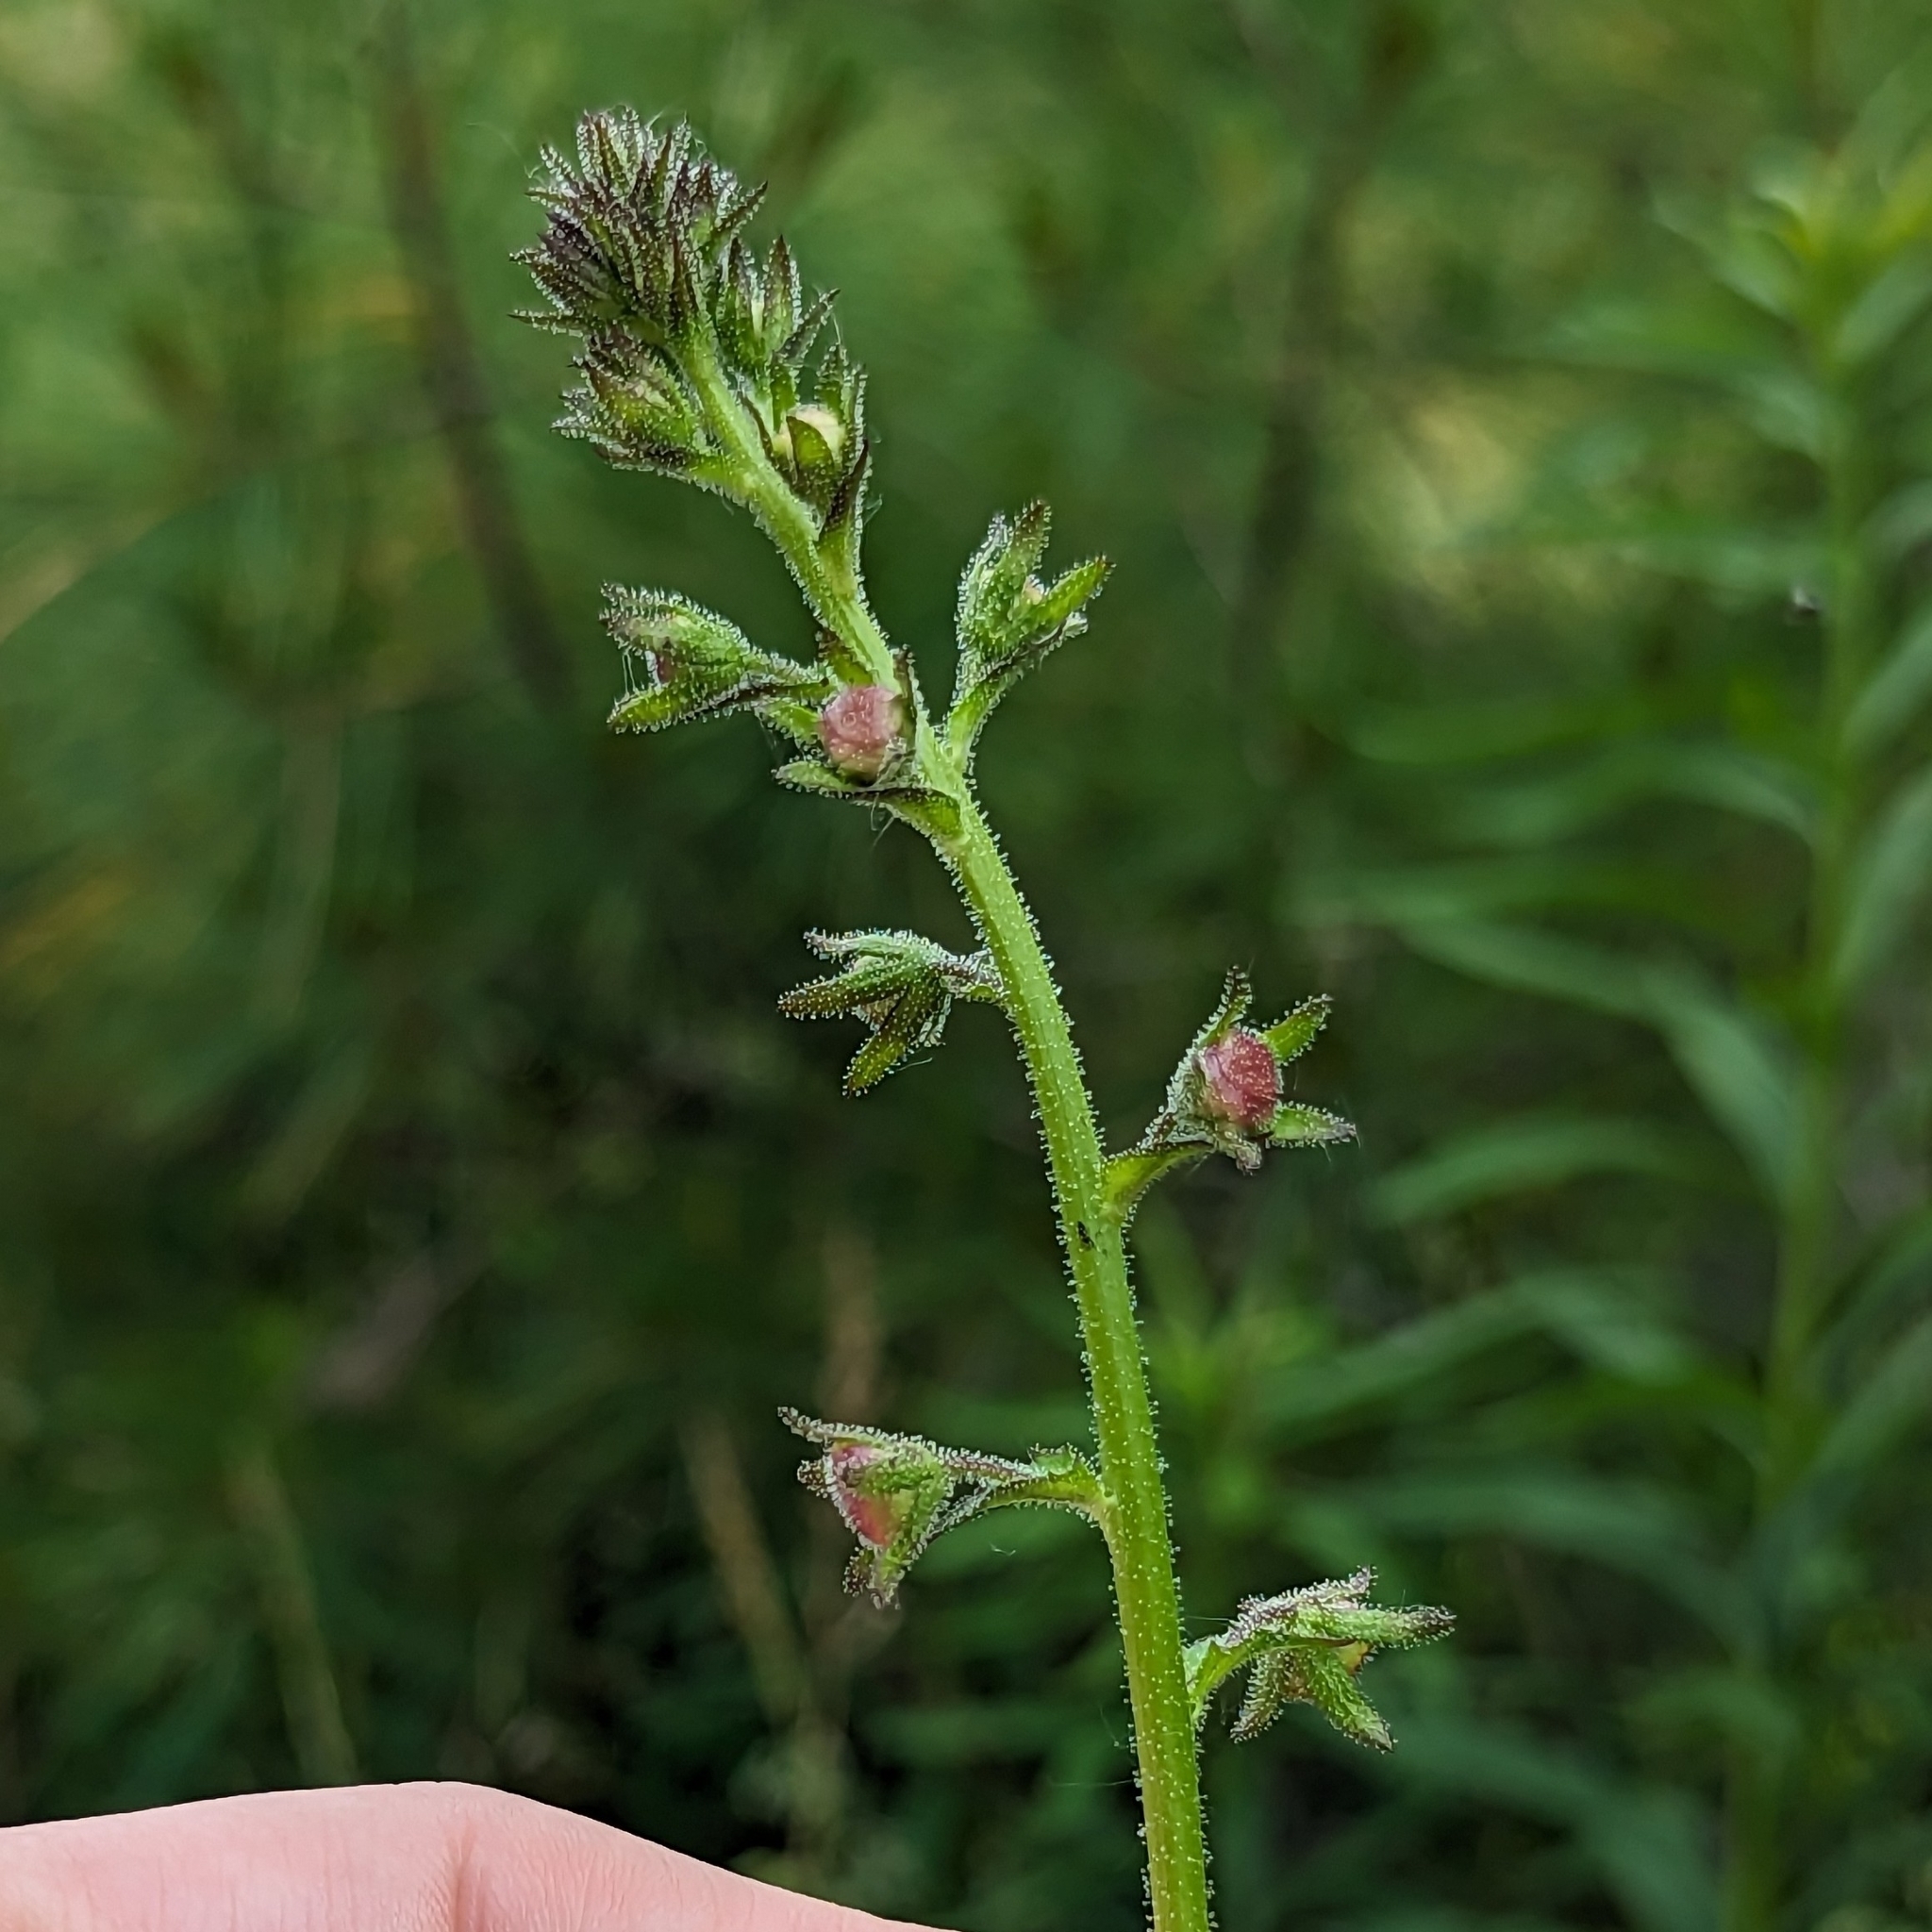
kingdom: Plantae
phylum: Tracheophyta
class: Magnoliopsida
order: Lamiales
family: Scrophulariaceae
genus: Verbascum
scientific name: Verbascum blattaria
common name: Moth mullein
